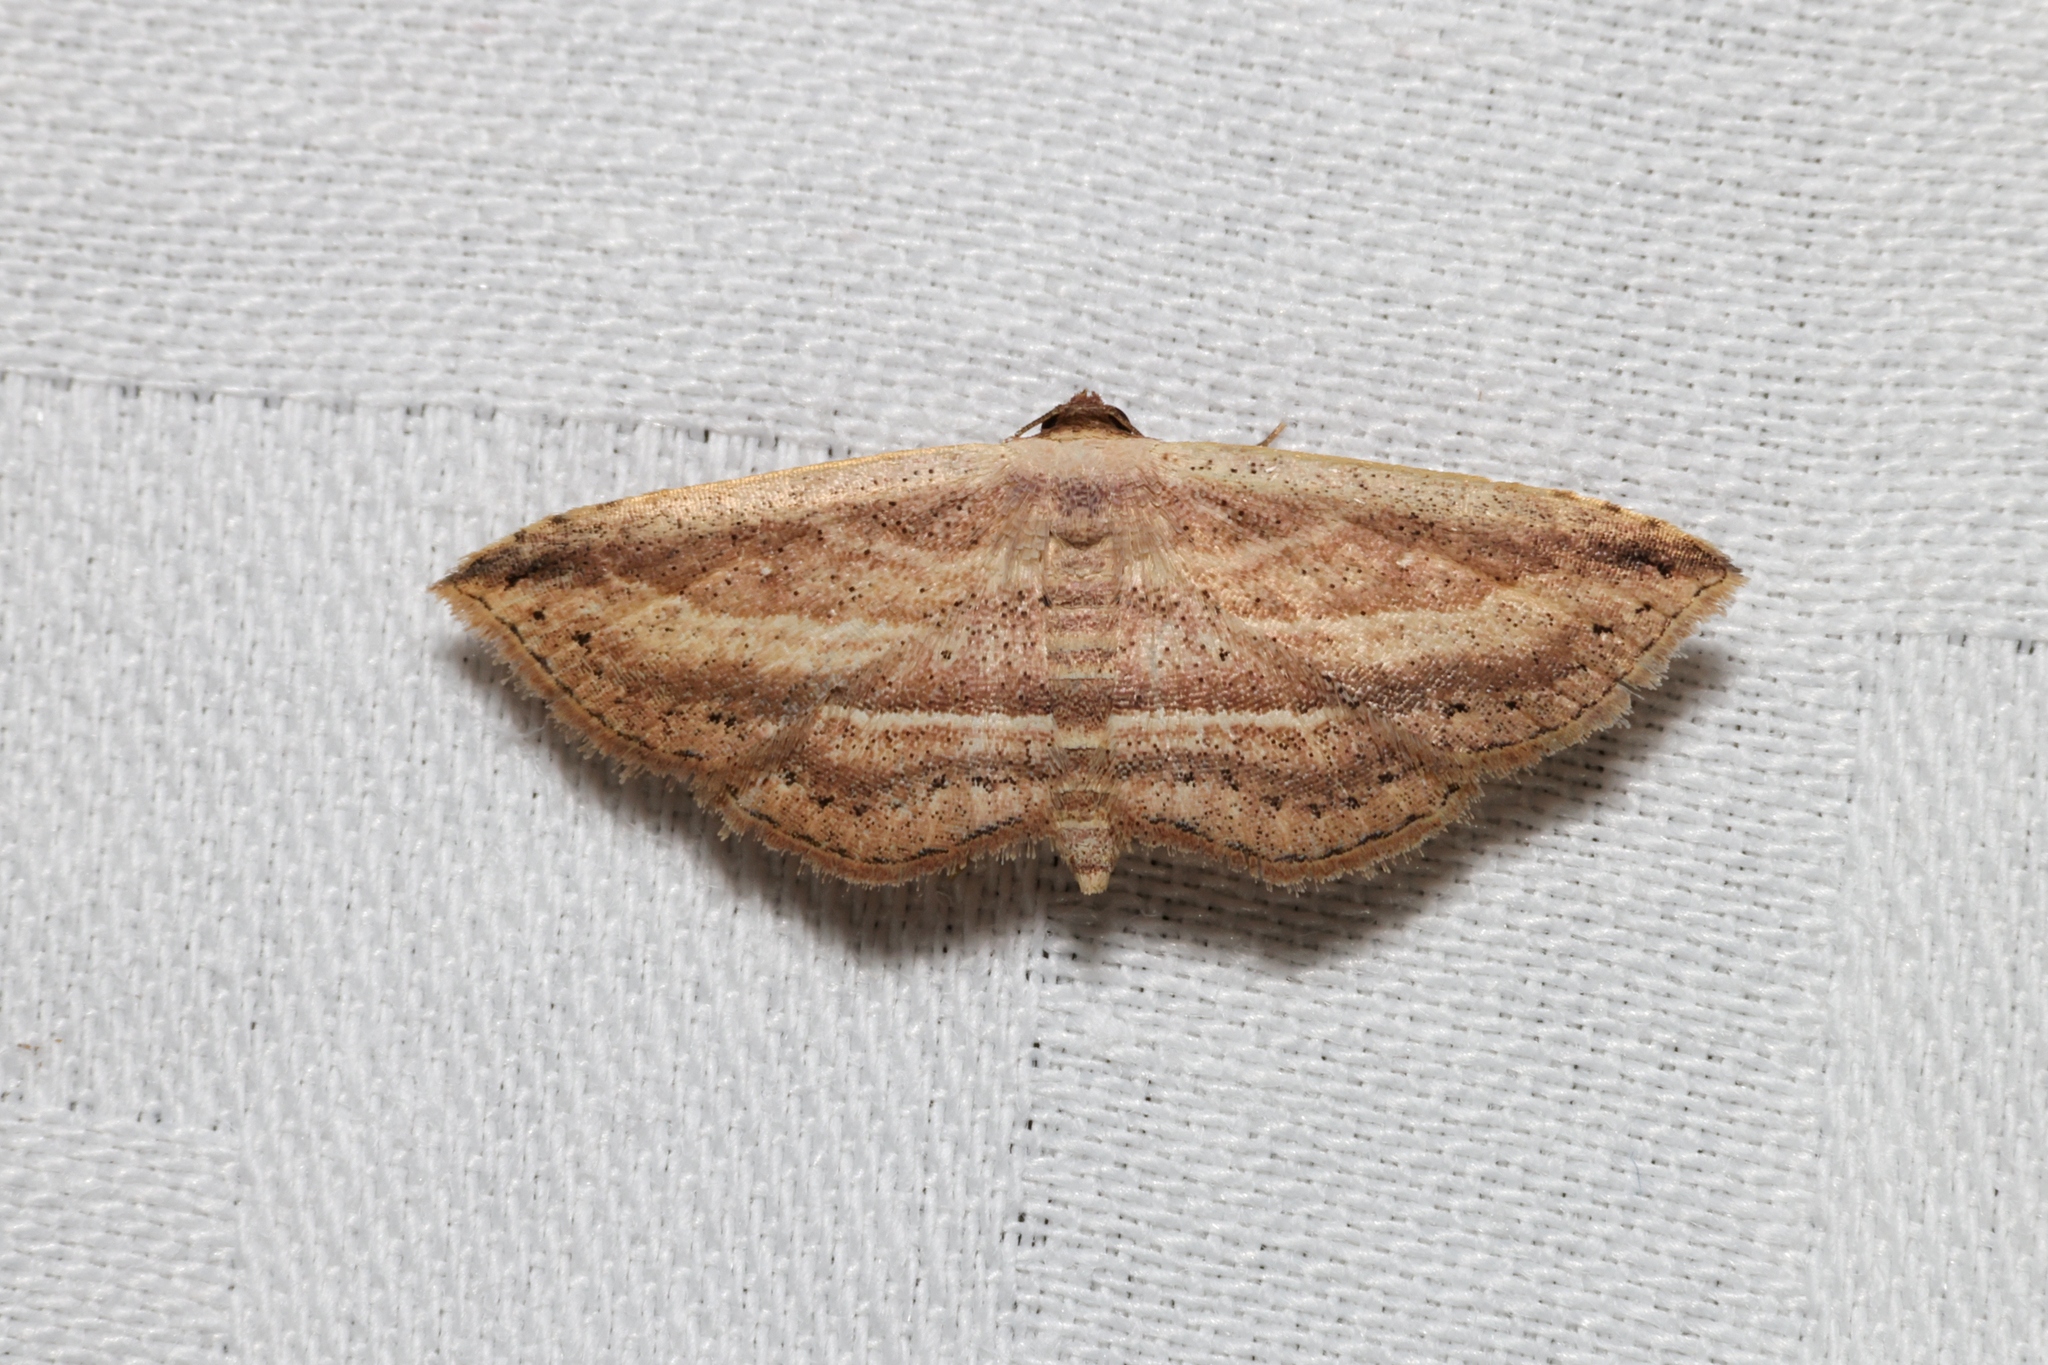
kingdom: Animalia
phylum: Arthropoda
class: Insecta
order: Lepidoptera
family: Noctuidae
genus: Hyposada
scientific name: Hyposada kadooriensis
